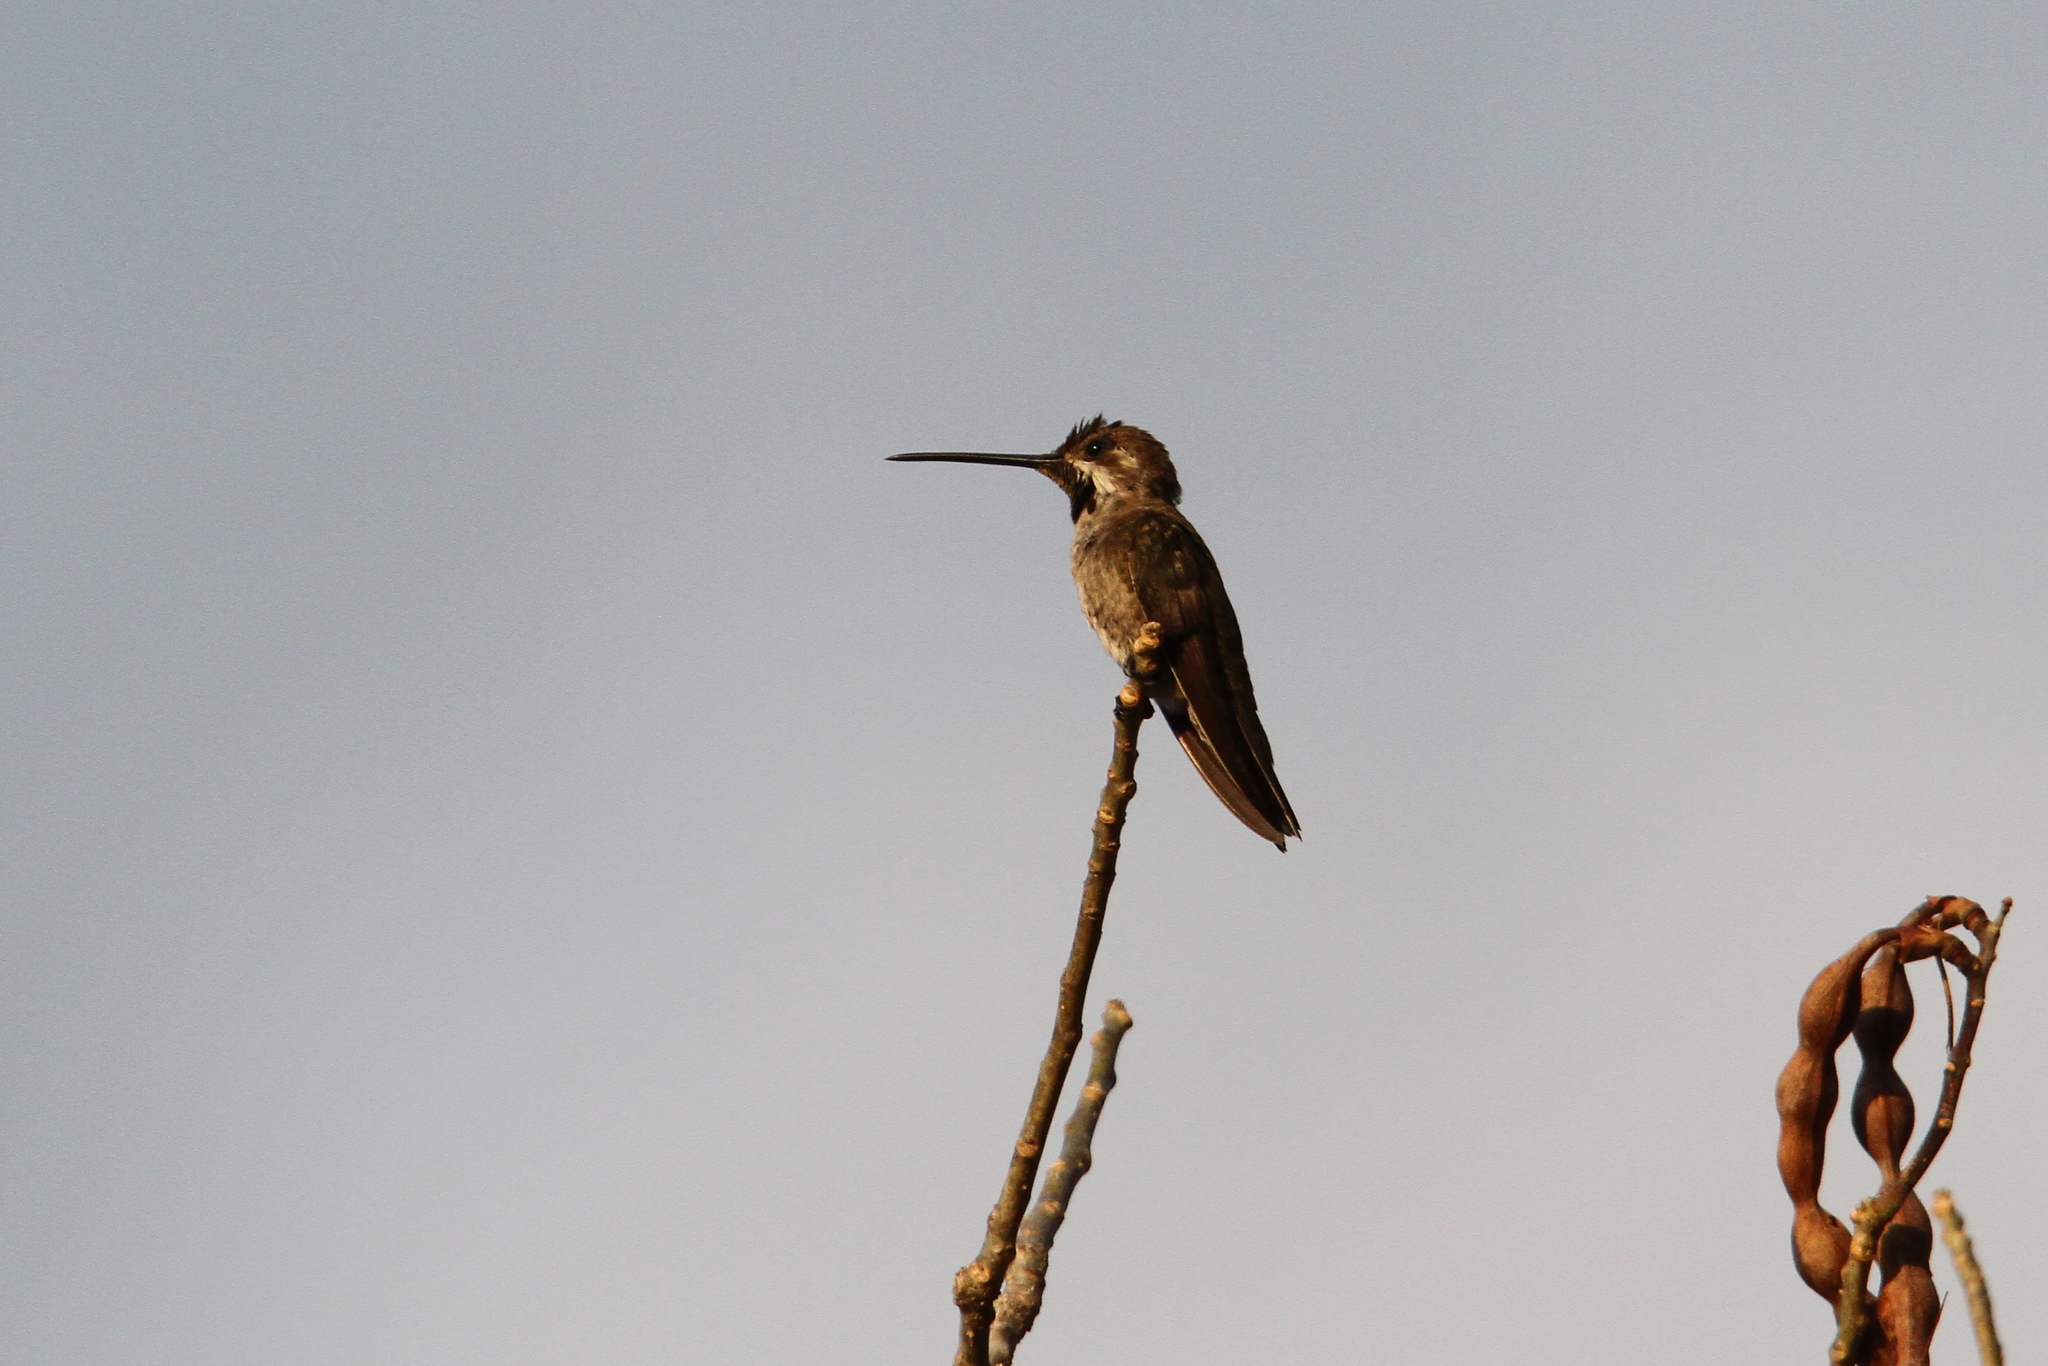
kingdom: Animalia
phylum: Chordata
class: Aves
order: Apodiformes
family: Trochilidae
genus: Heliomaster
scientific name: Heliomaster constantii
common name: Plain-capped starthroat
